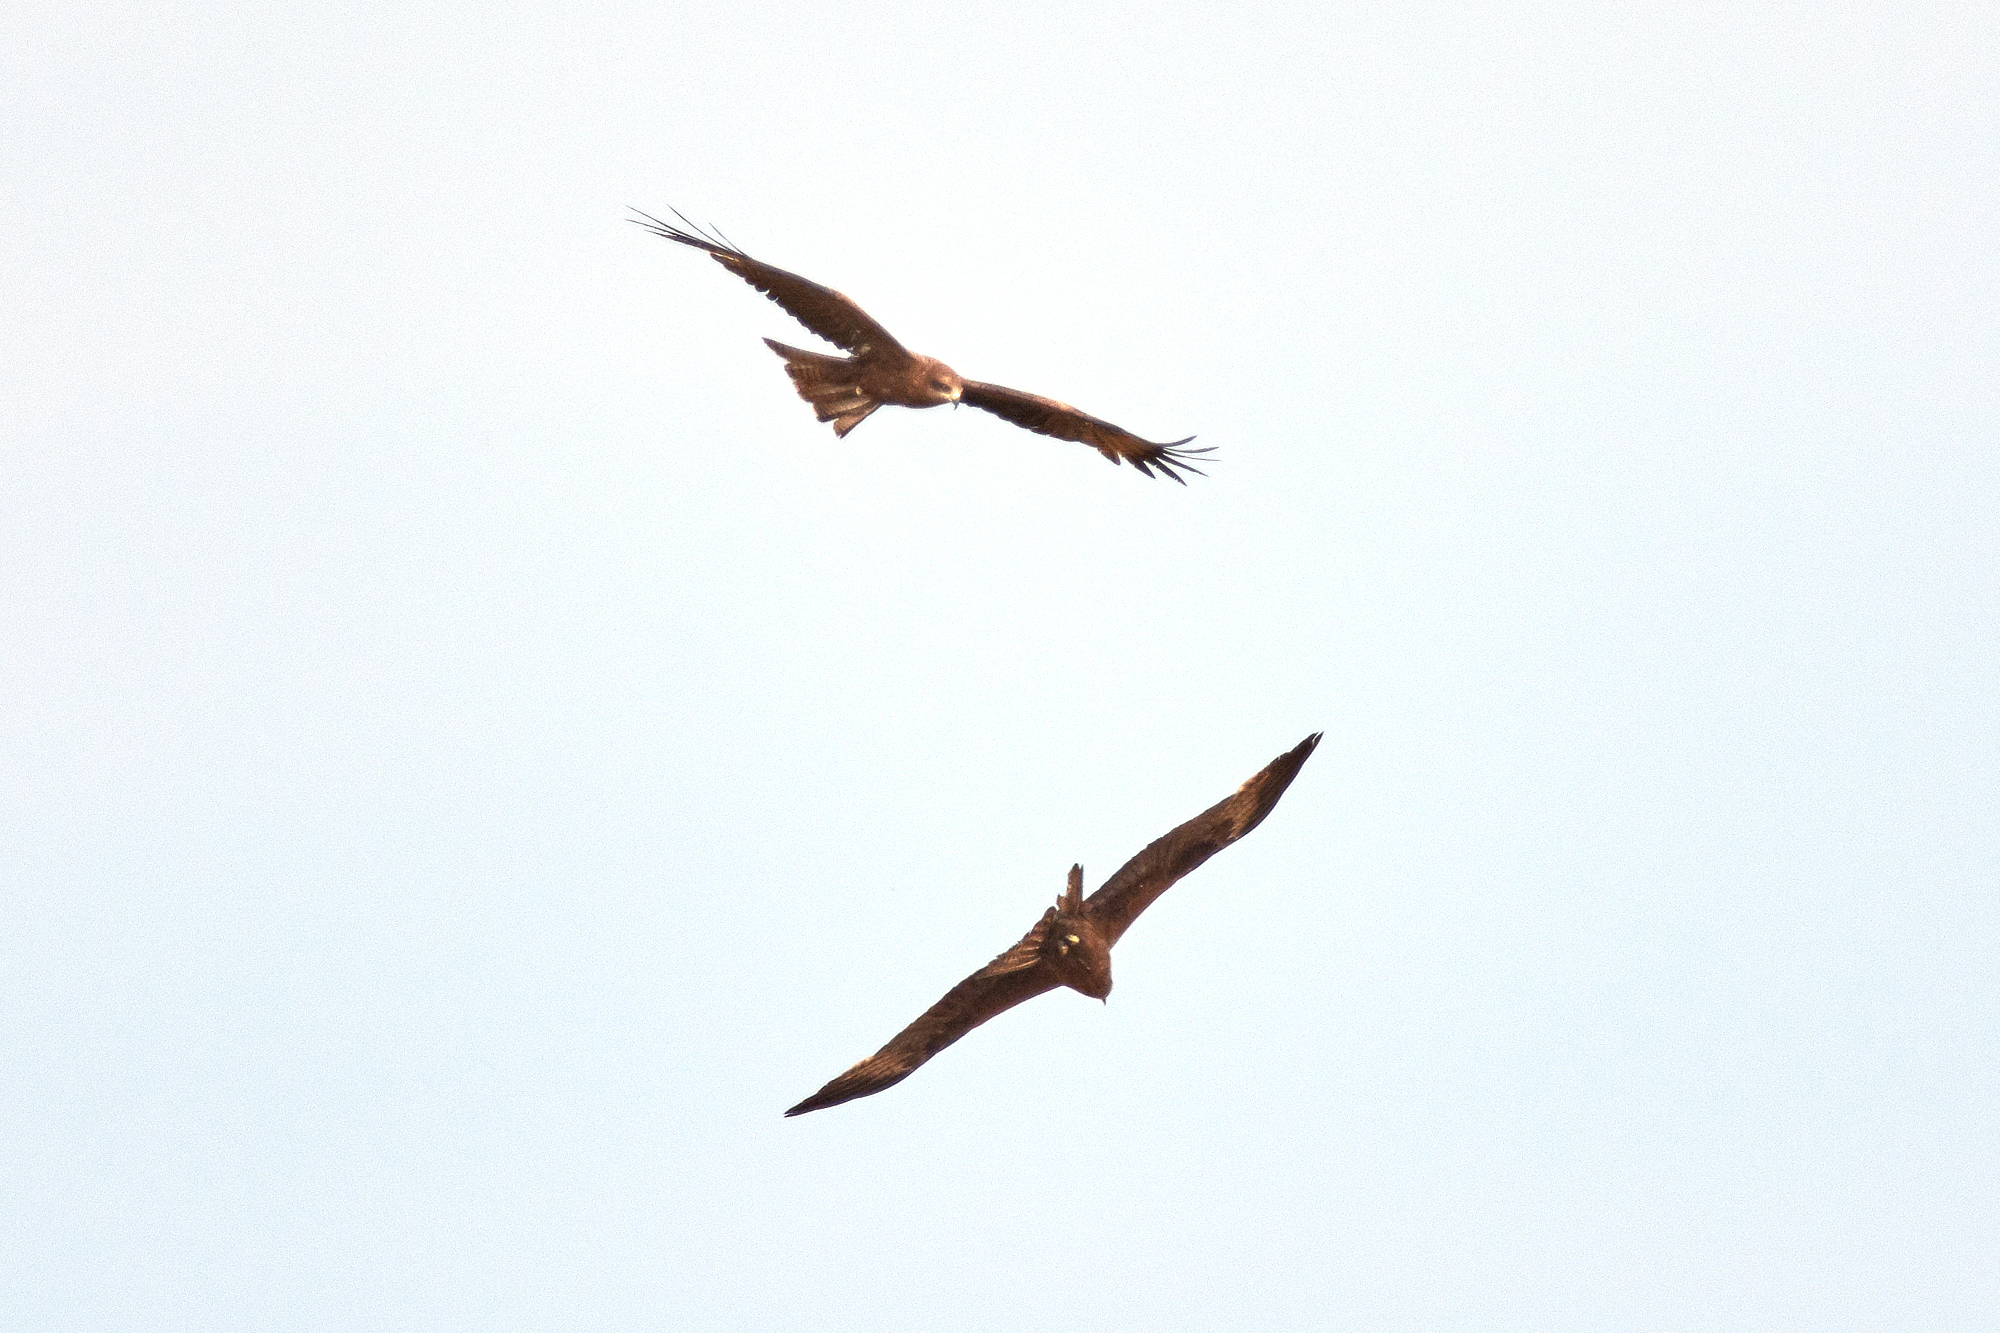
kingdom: Animalia
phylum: Chordata
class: Aves
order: Accipitriformes
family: Accipitridae
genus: Milvus
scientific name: Milvus migrans
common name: Black kite
